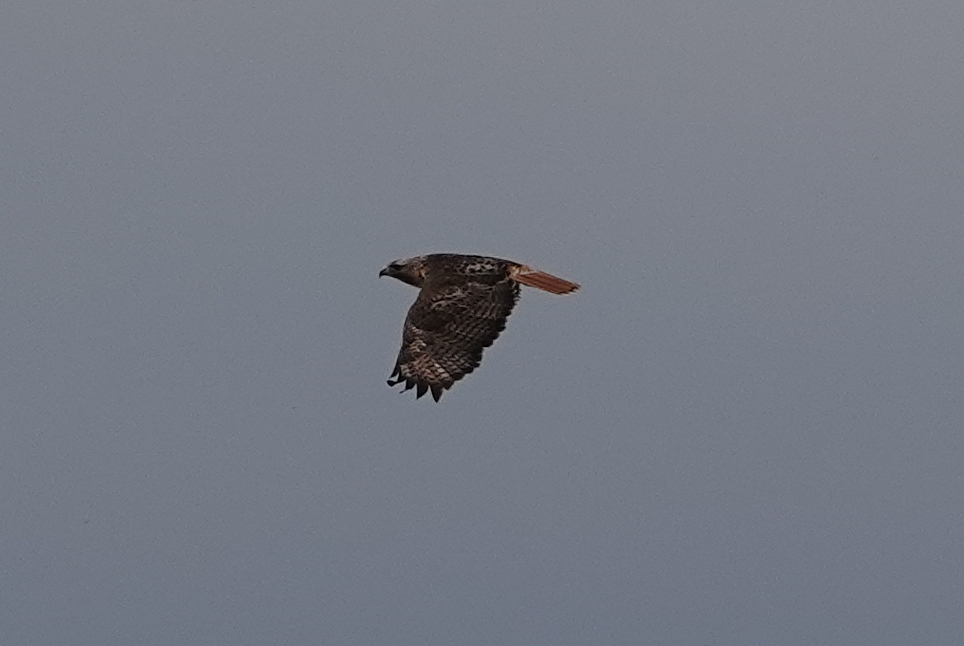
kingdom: Animalia
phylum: Chordata
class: Aves
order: Accipitriformes
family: Accipitridae
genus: Buteo
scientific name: Buteo jamaicensis
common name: Red-tailed hawk
